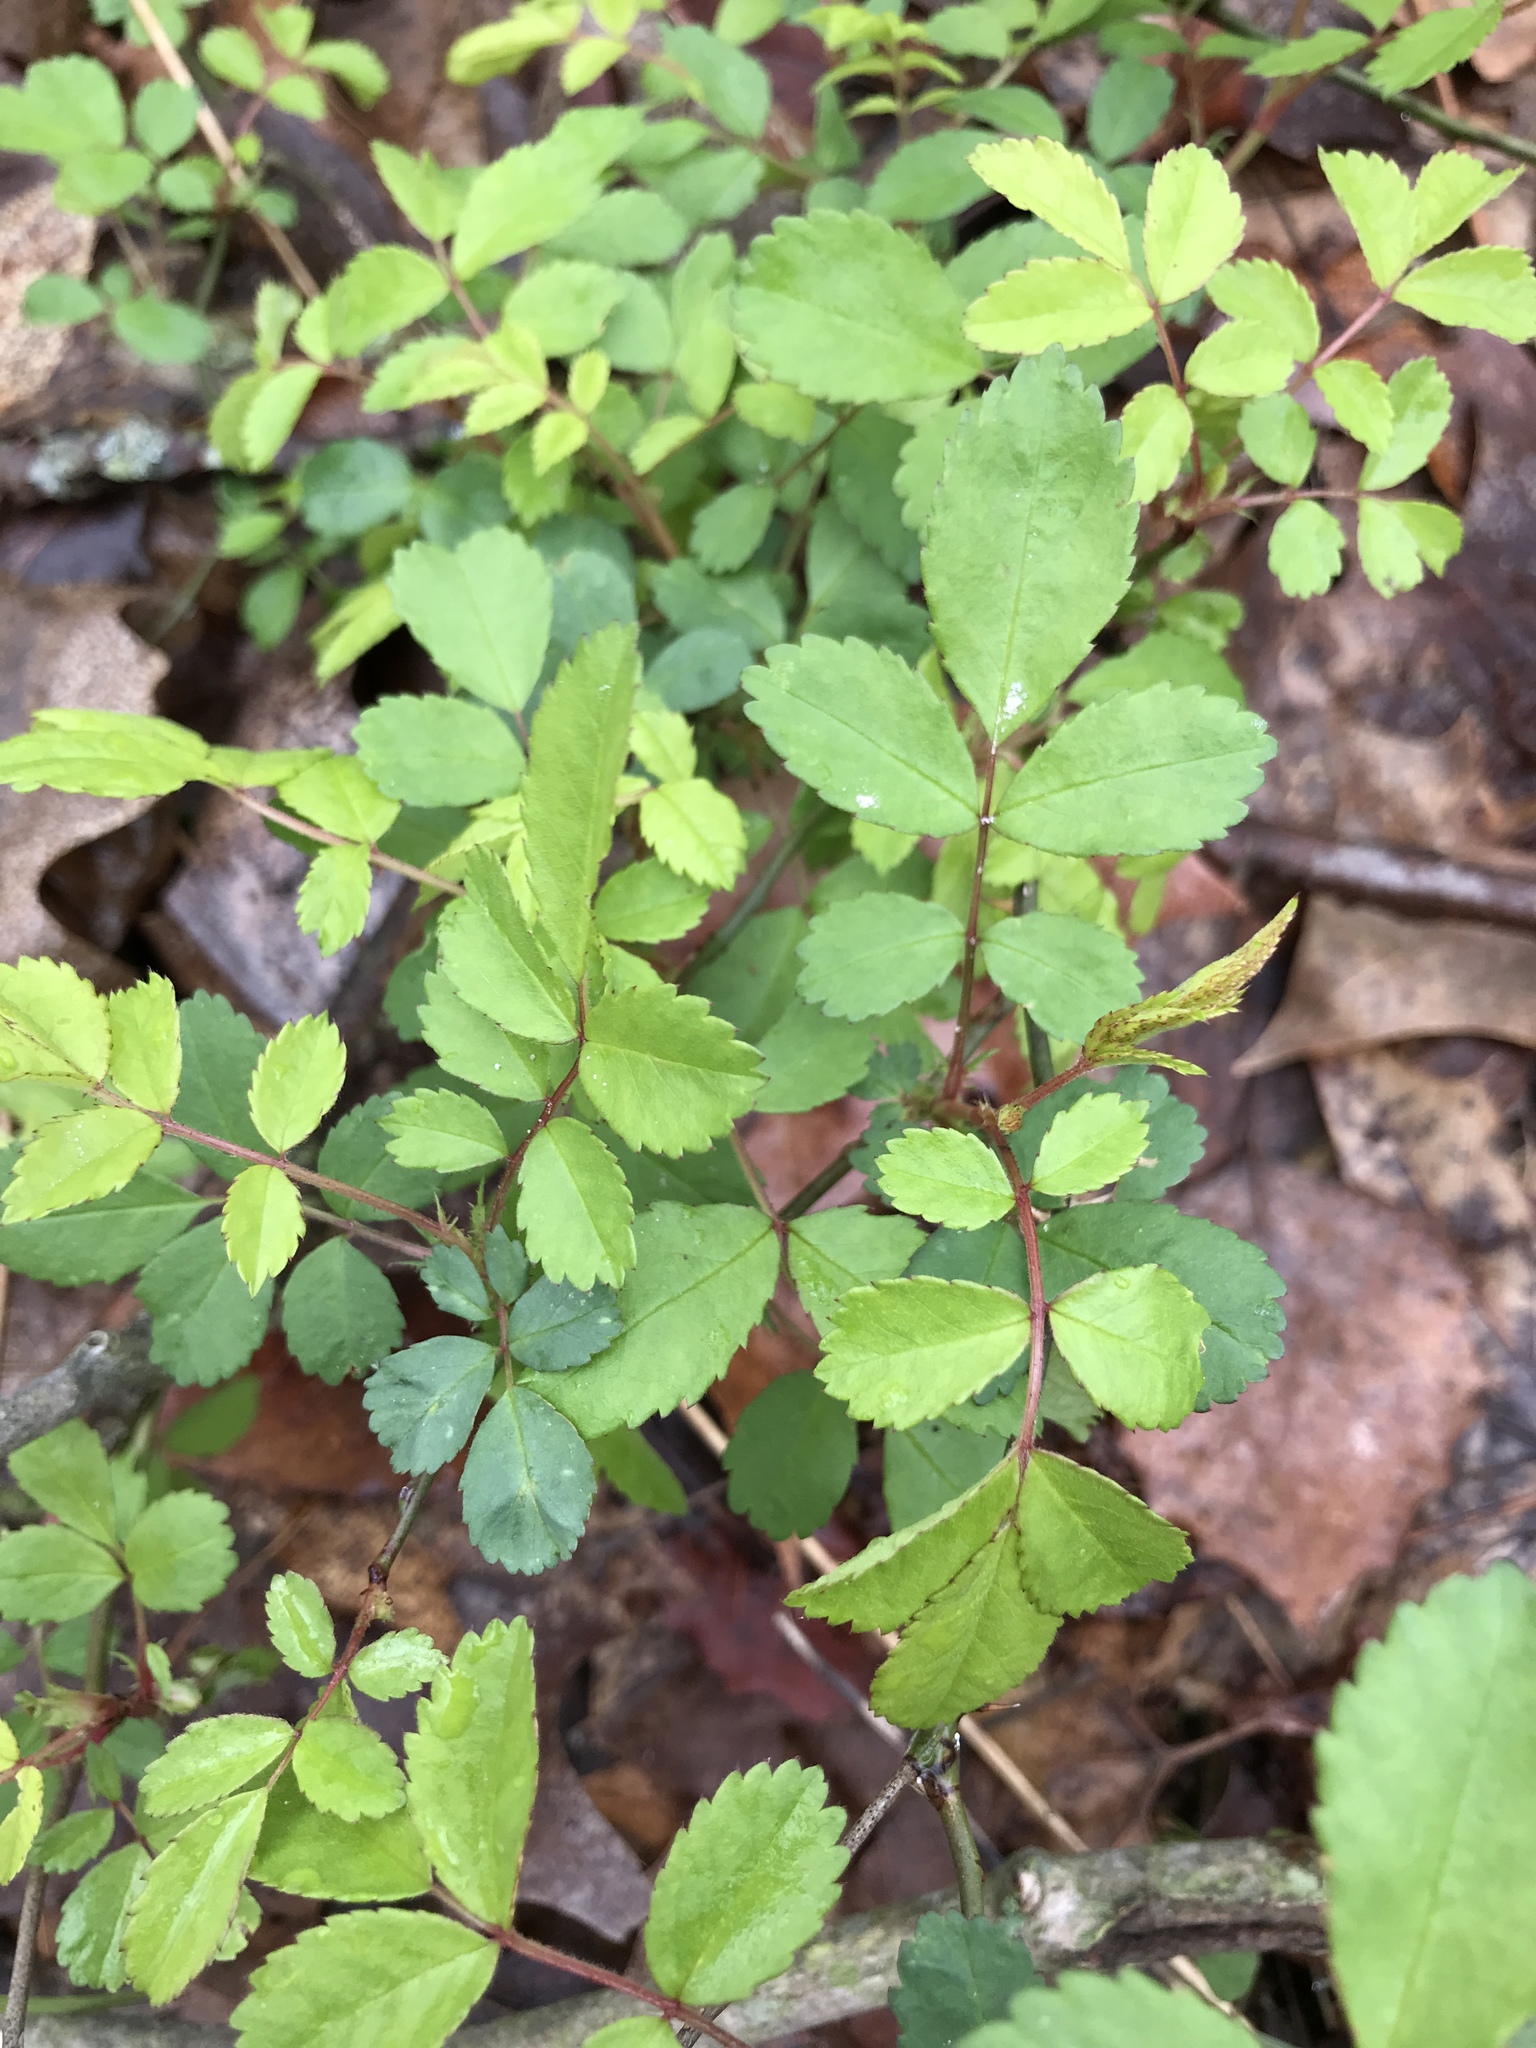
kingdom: Plantae
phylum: Tracheophyta
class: Magnoliopsida
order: Rosales
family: Rosaceae
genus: Rosa
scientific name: Rosa multiflora
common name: Multiflora rose
